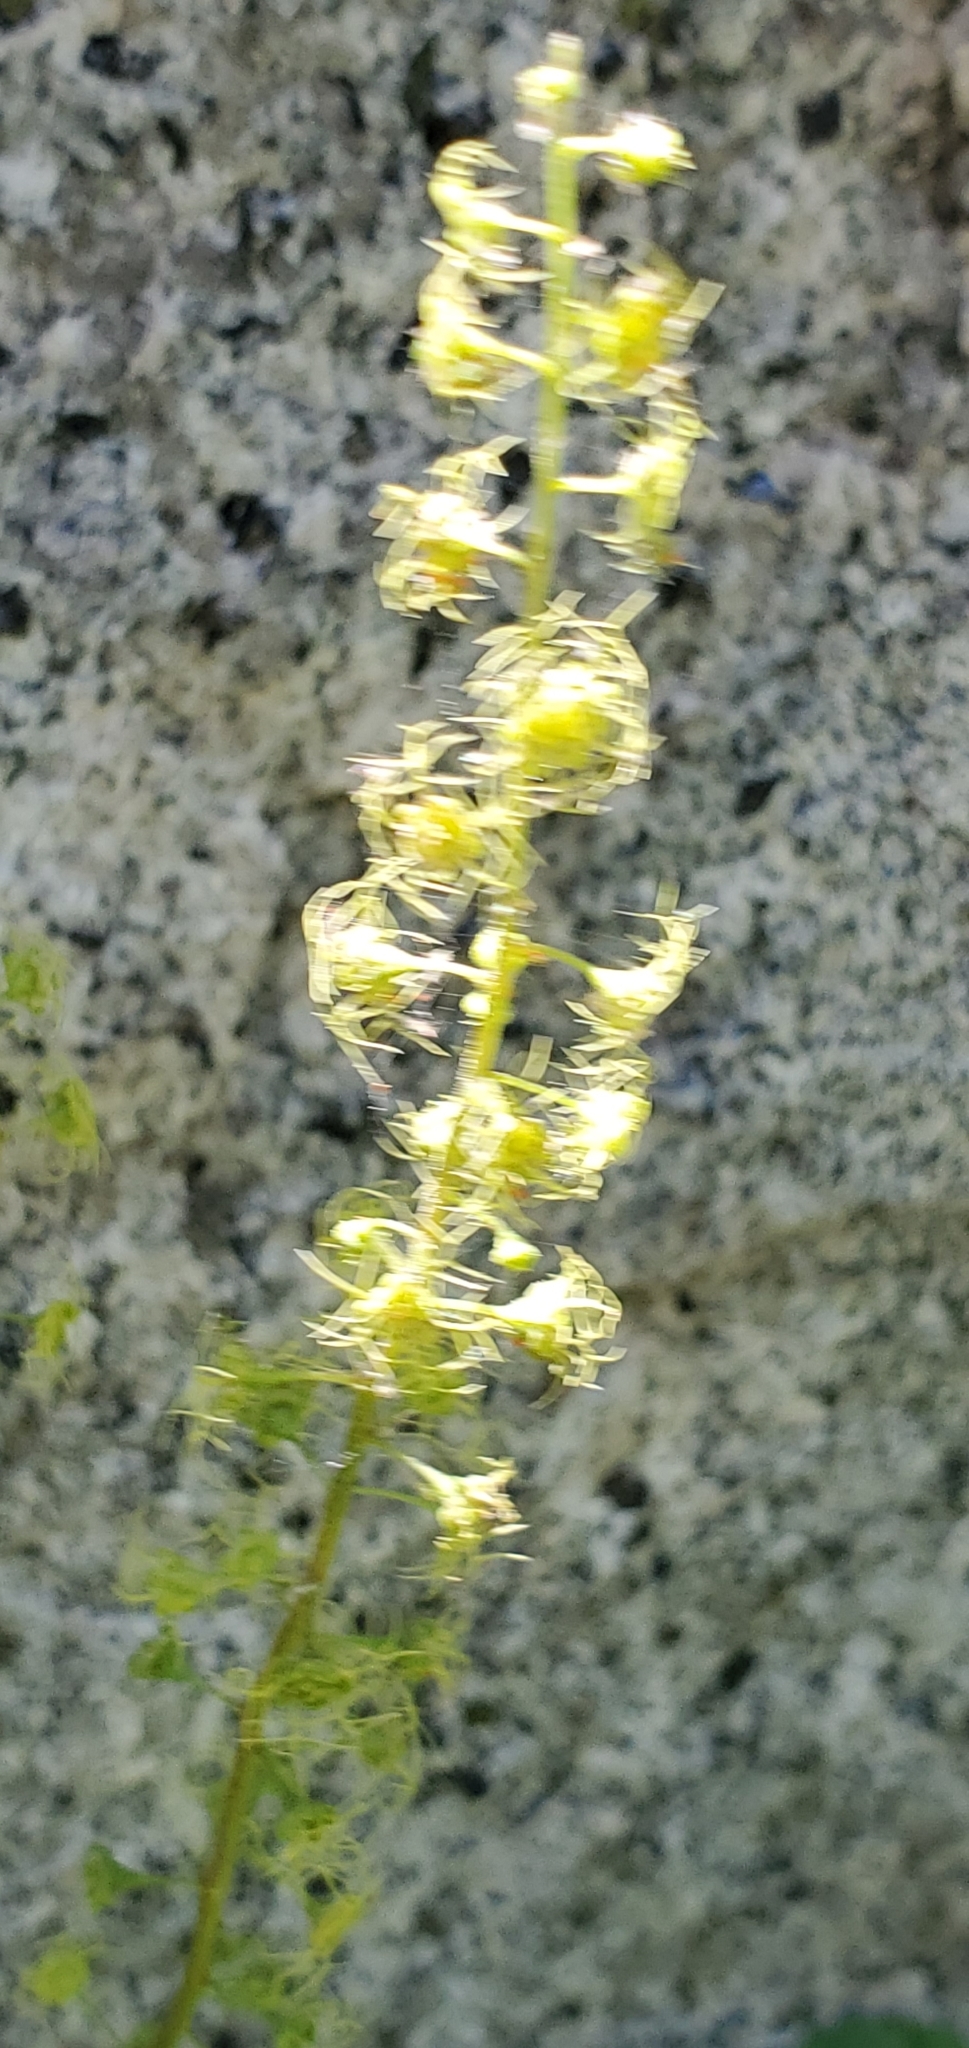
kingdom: Plantae
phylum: Tracheophyta
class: Magnoliopsida
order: Saxifragales
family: Saxifragaceae
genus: Brewerimitella
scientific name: Brewerimitella breweri
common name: Brewer's bishop's-cap
